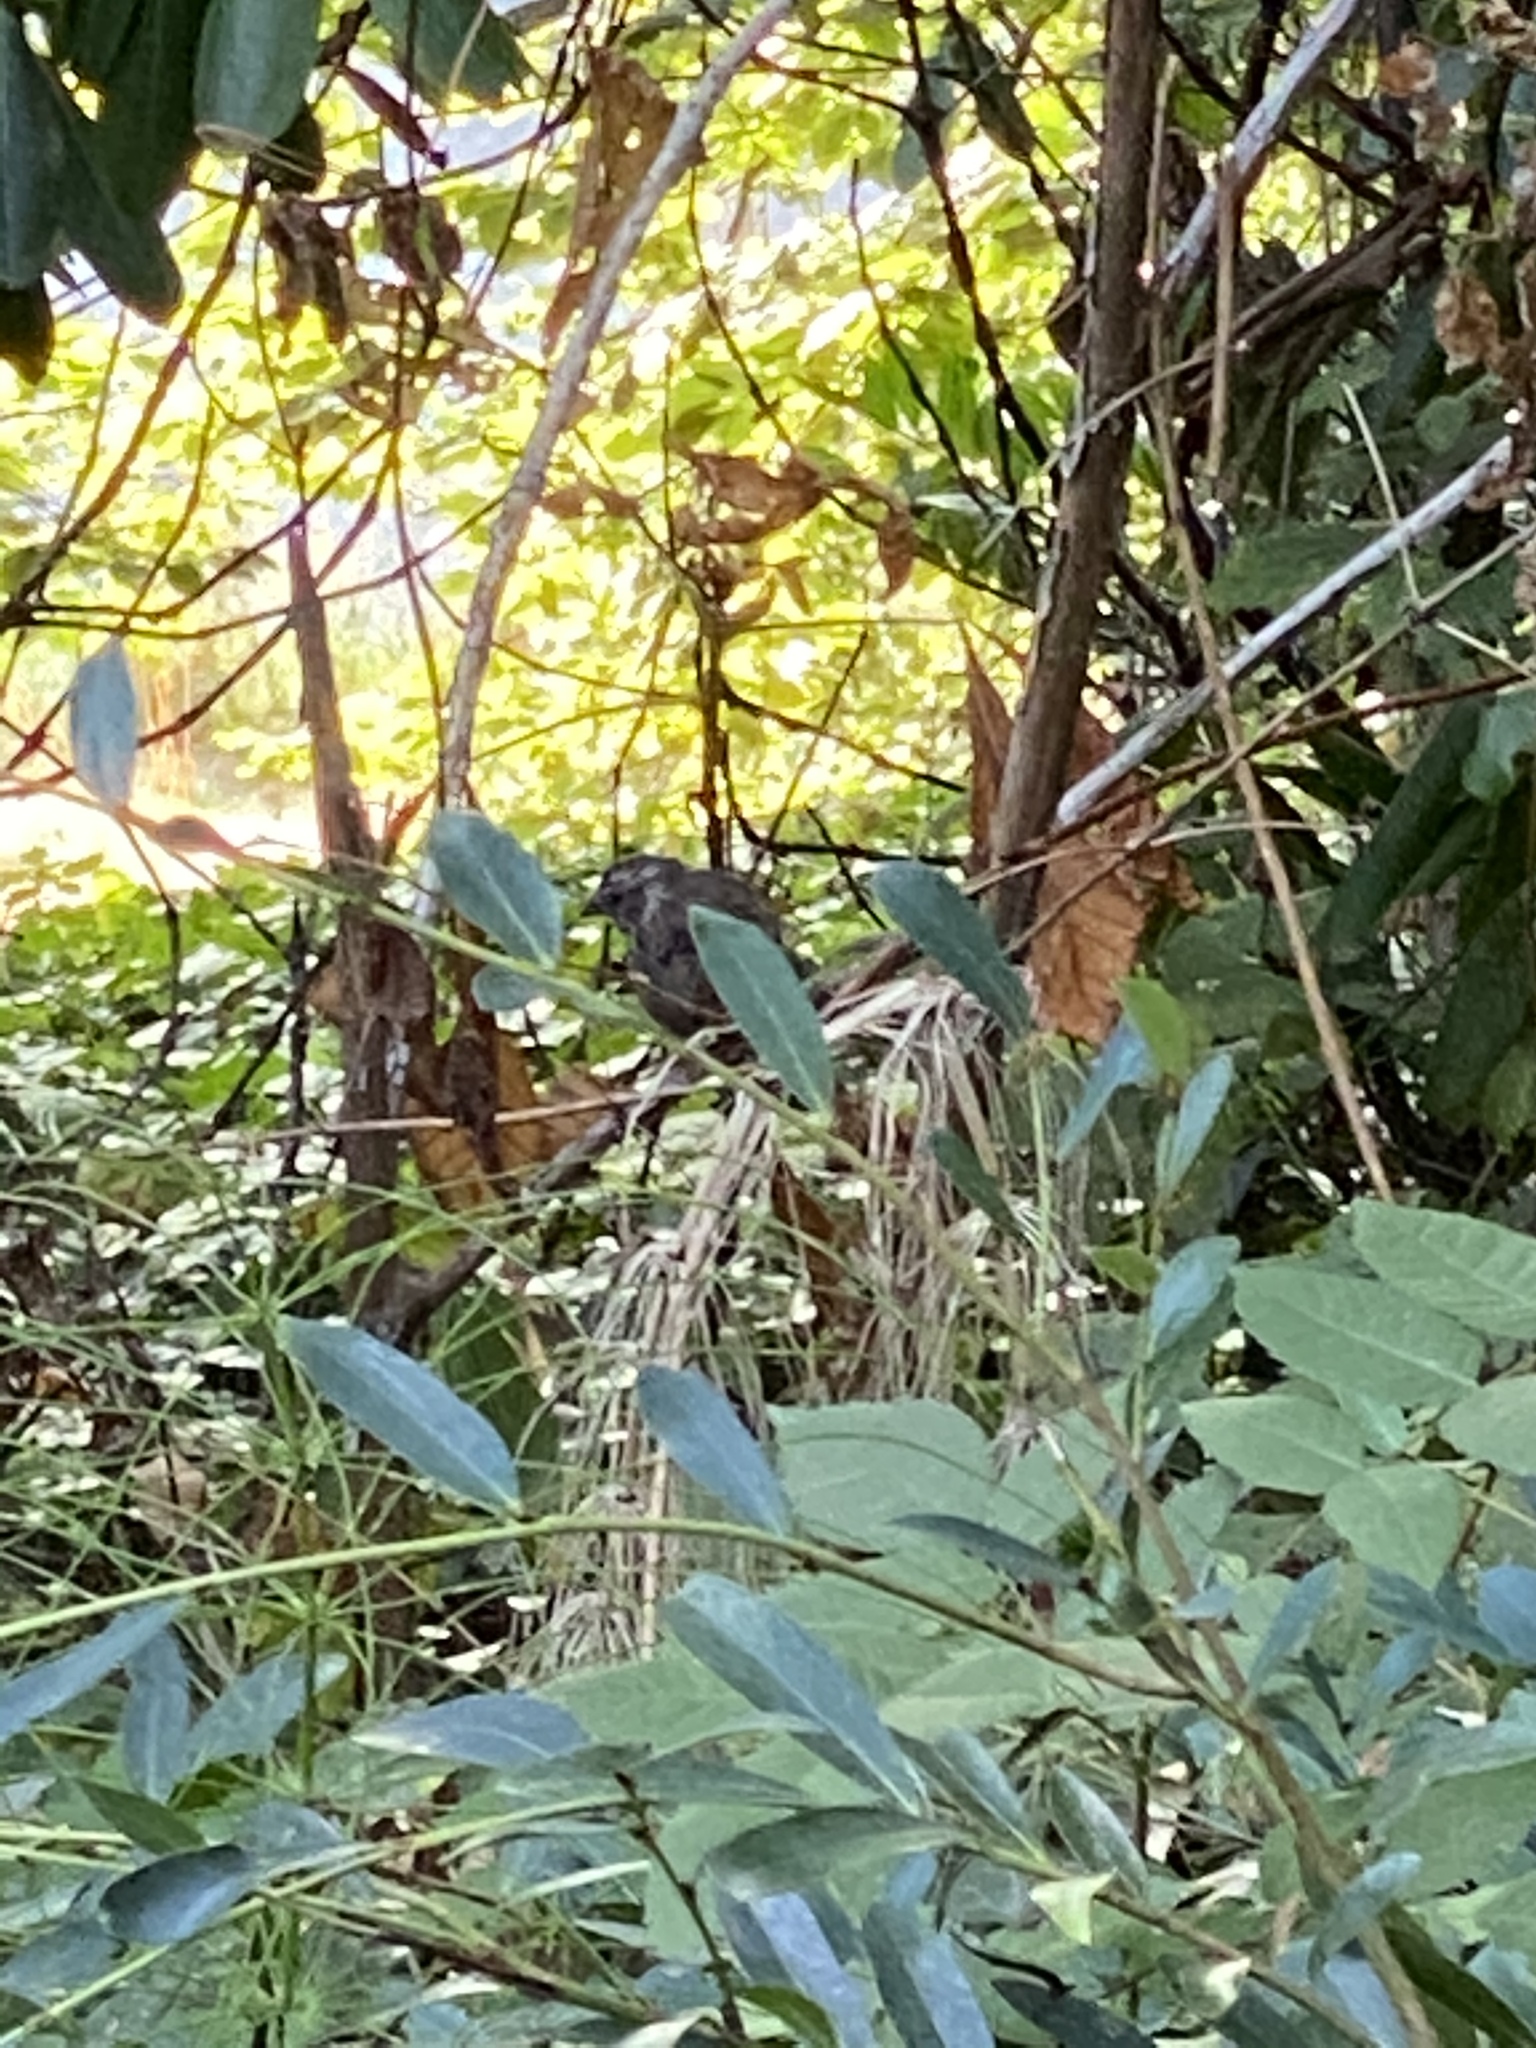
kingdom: Animalia
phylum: Chordata
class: Aves
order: Passeriformes
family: Passerellidae
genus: Melospiza
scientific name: Melospiza melodia
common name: Song sparrow
